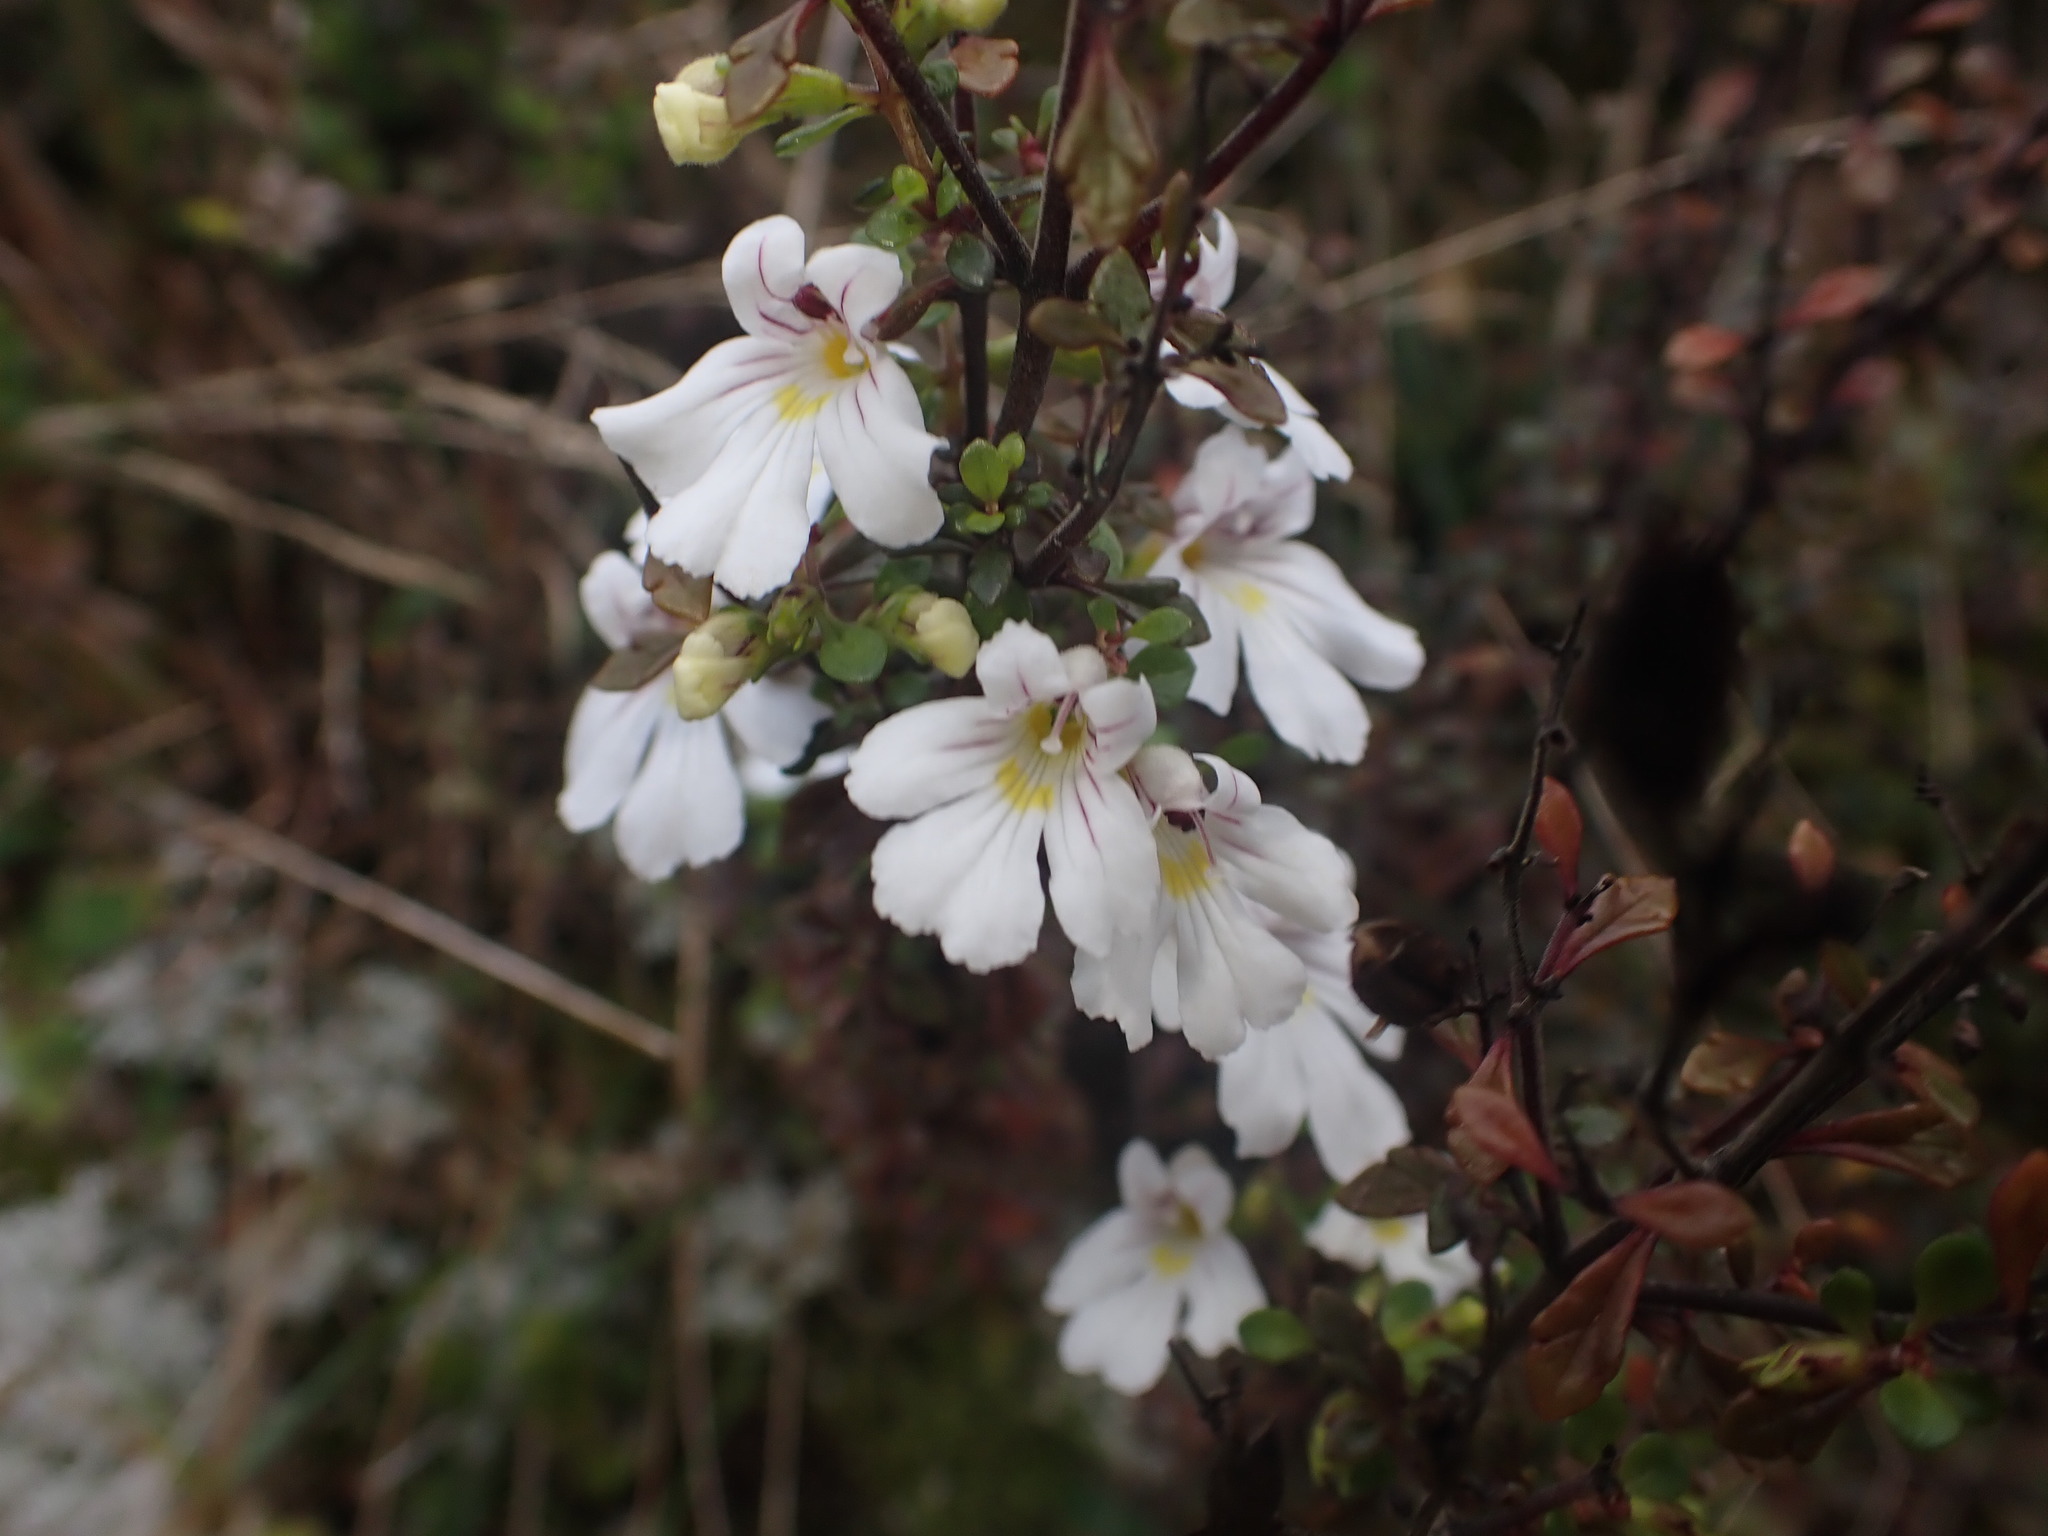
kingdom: Plantae
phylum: Tracheophyta
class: Magnoliopsida
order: Lamiales
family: Orobanchaceae
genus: Euphrasia
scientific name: Euphrasia cuneata
